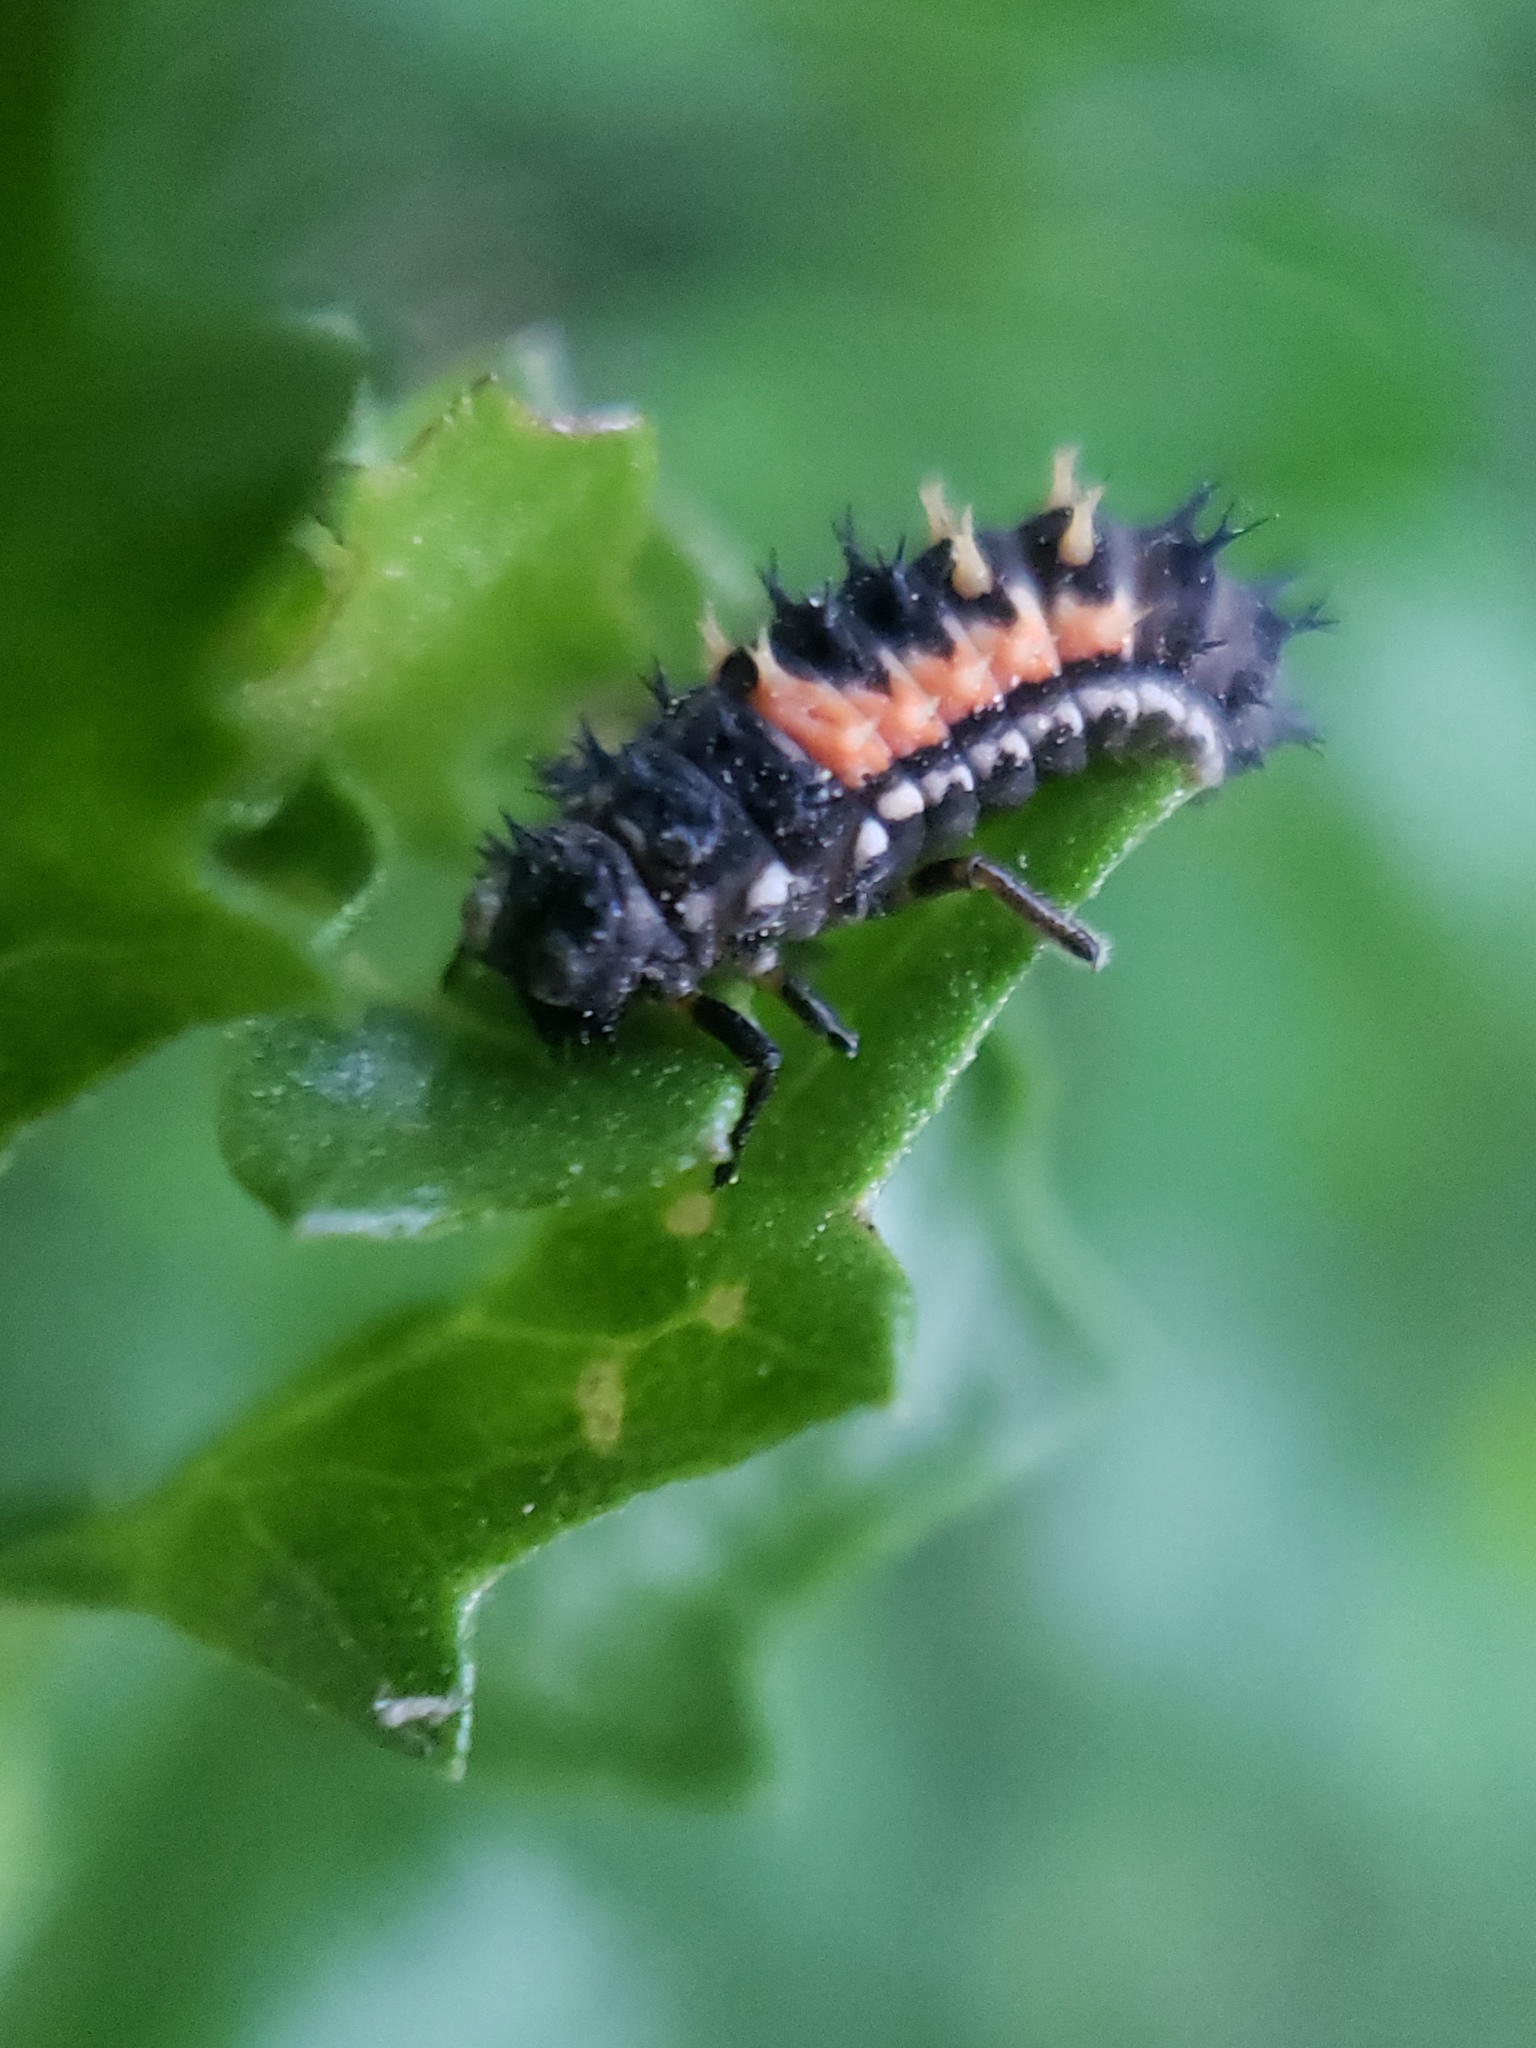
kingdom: Animalia
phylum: Arthropoda
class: Insecta
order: Coleoptera
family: Coccinellidae
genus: Harmonia
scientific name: Harmonia axyridis
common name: Harlequin ladybird
